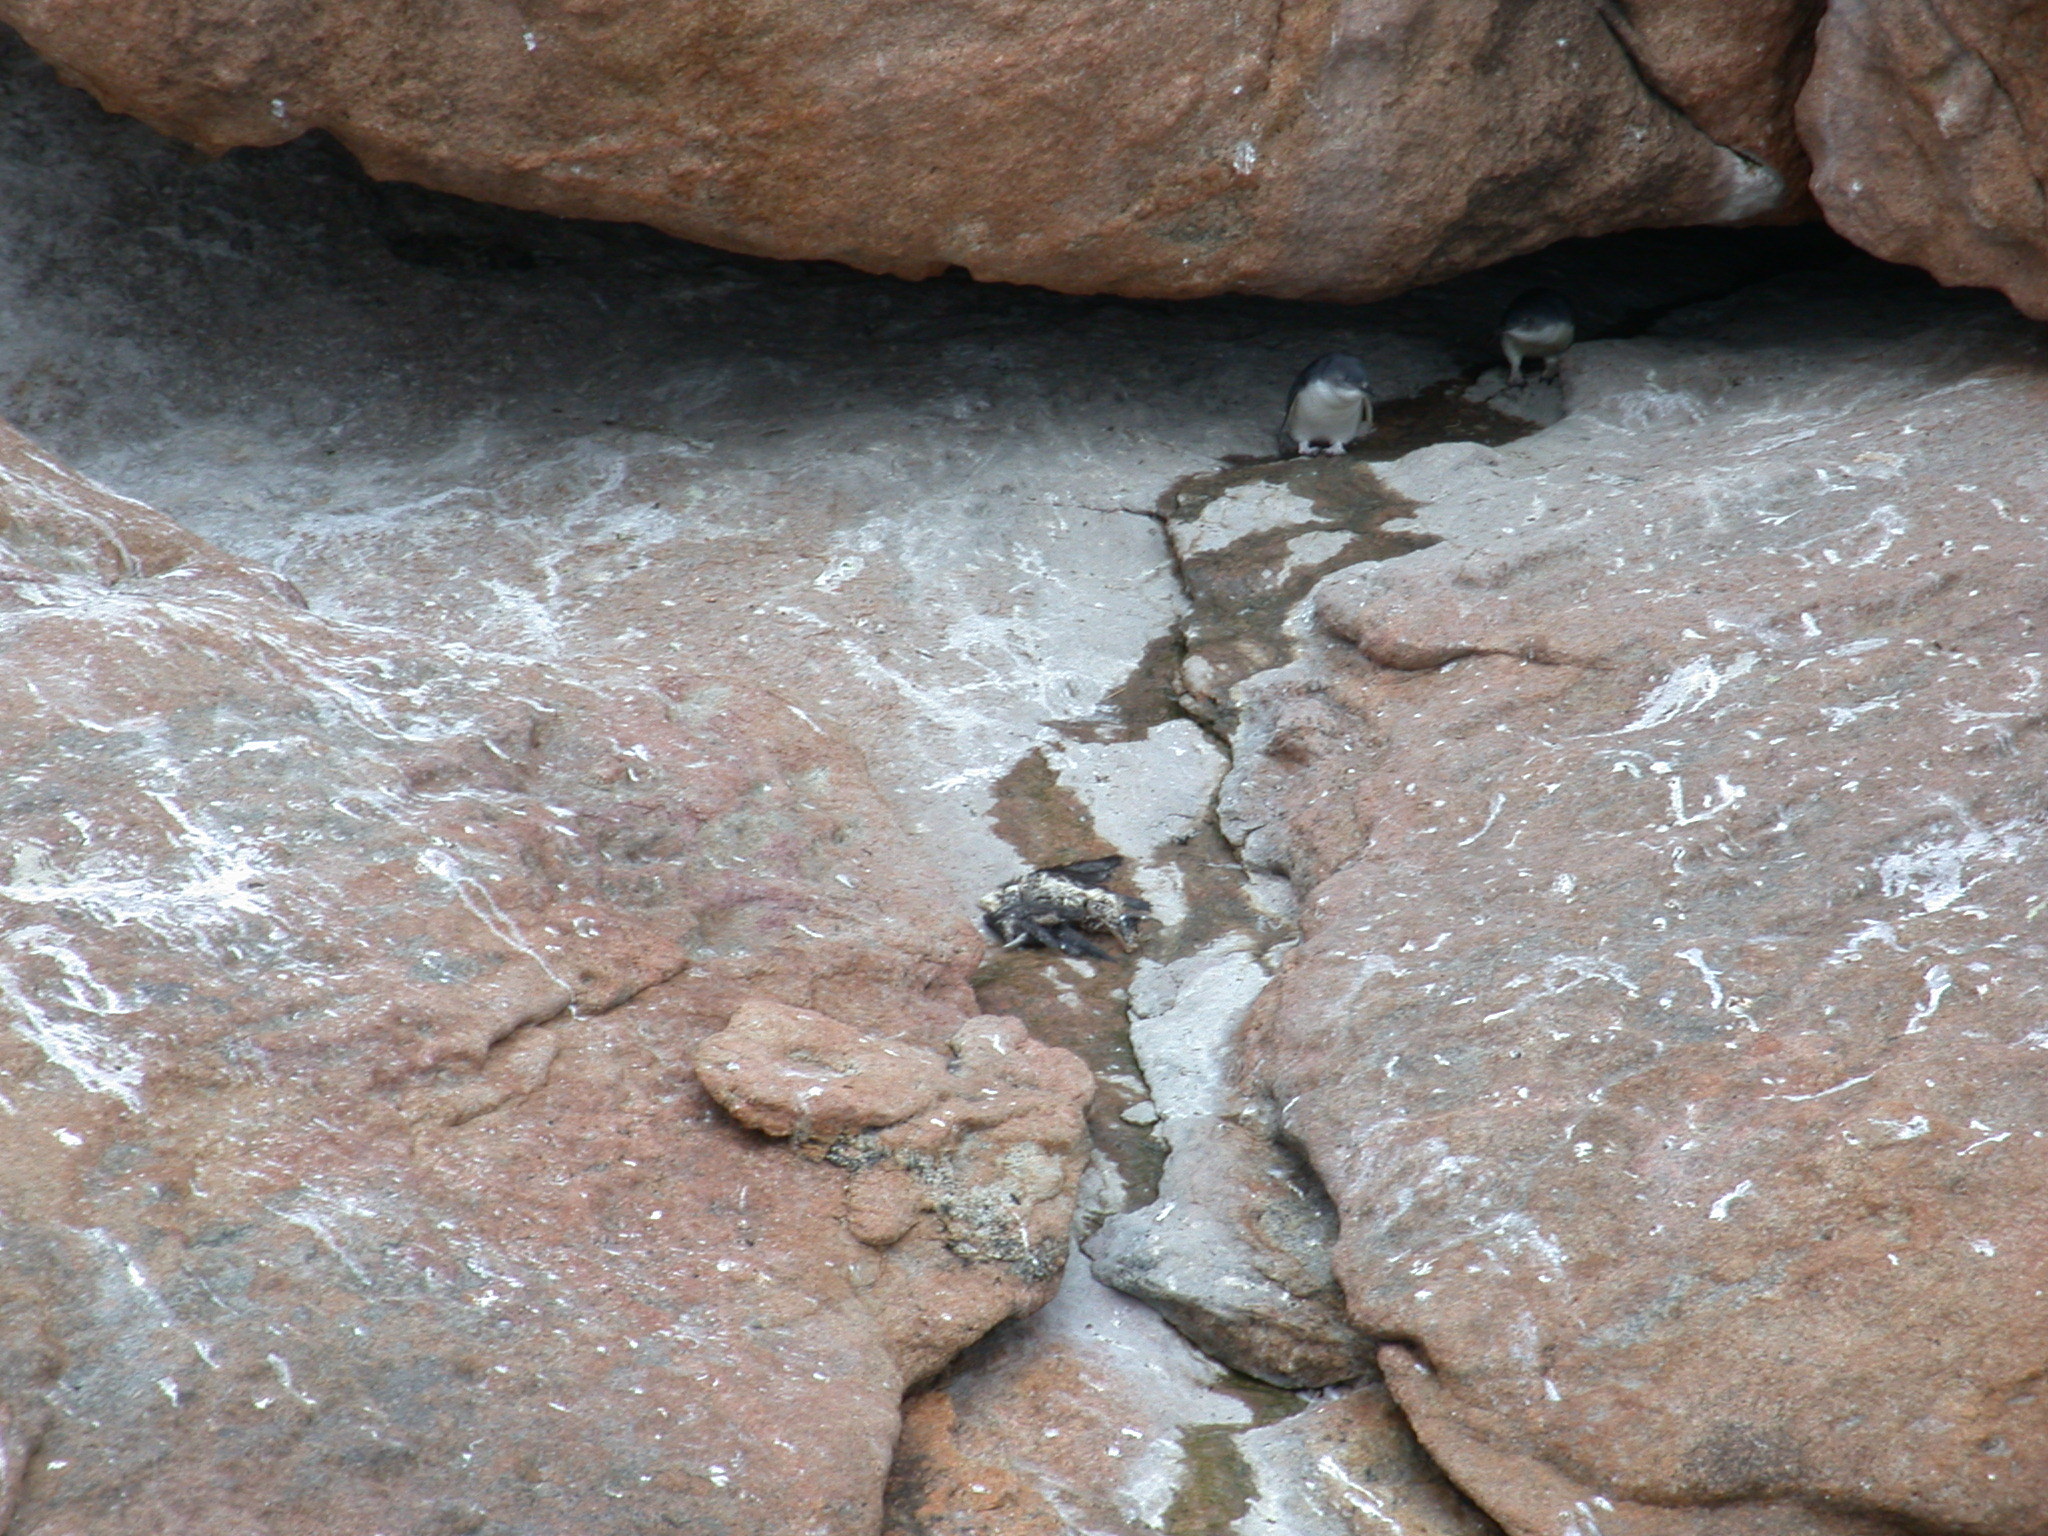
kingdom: Animalia
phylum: Chordata
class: Aves
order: Sphenisciformes
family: Spheniscidae
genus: Eudyptula
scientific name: Eudyptula minor
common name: Little penguin
